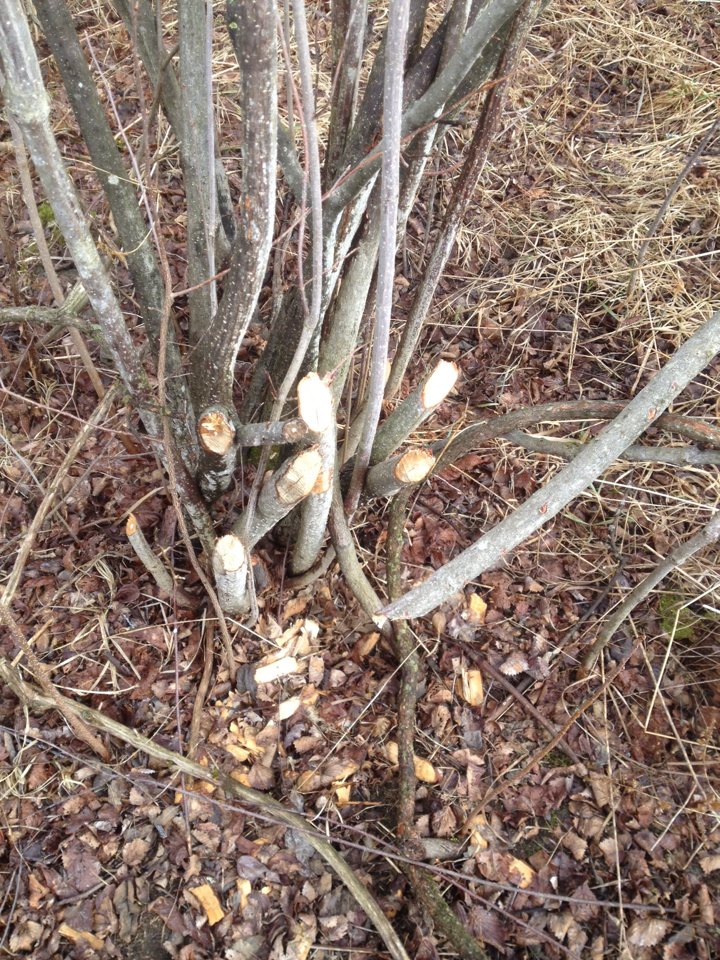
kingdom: Animalia
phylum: Chordata
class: Mammalia
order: Rodentia
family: Castoridae
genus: Castor
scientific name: Castor canadensis
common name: American beaver
